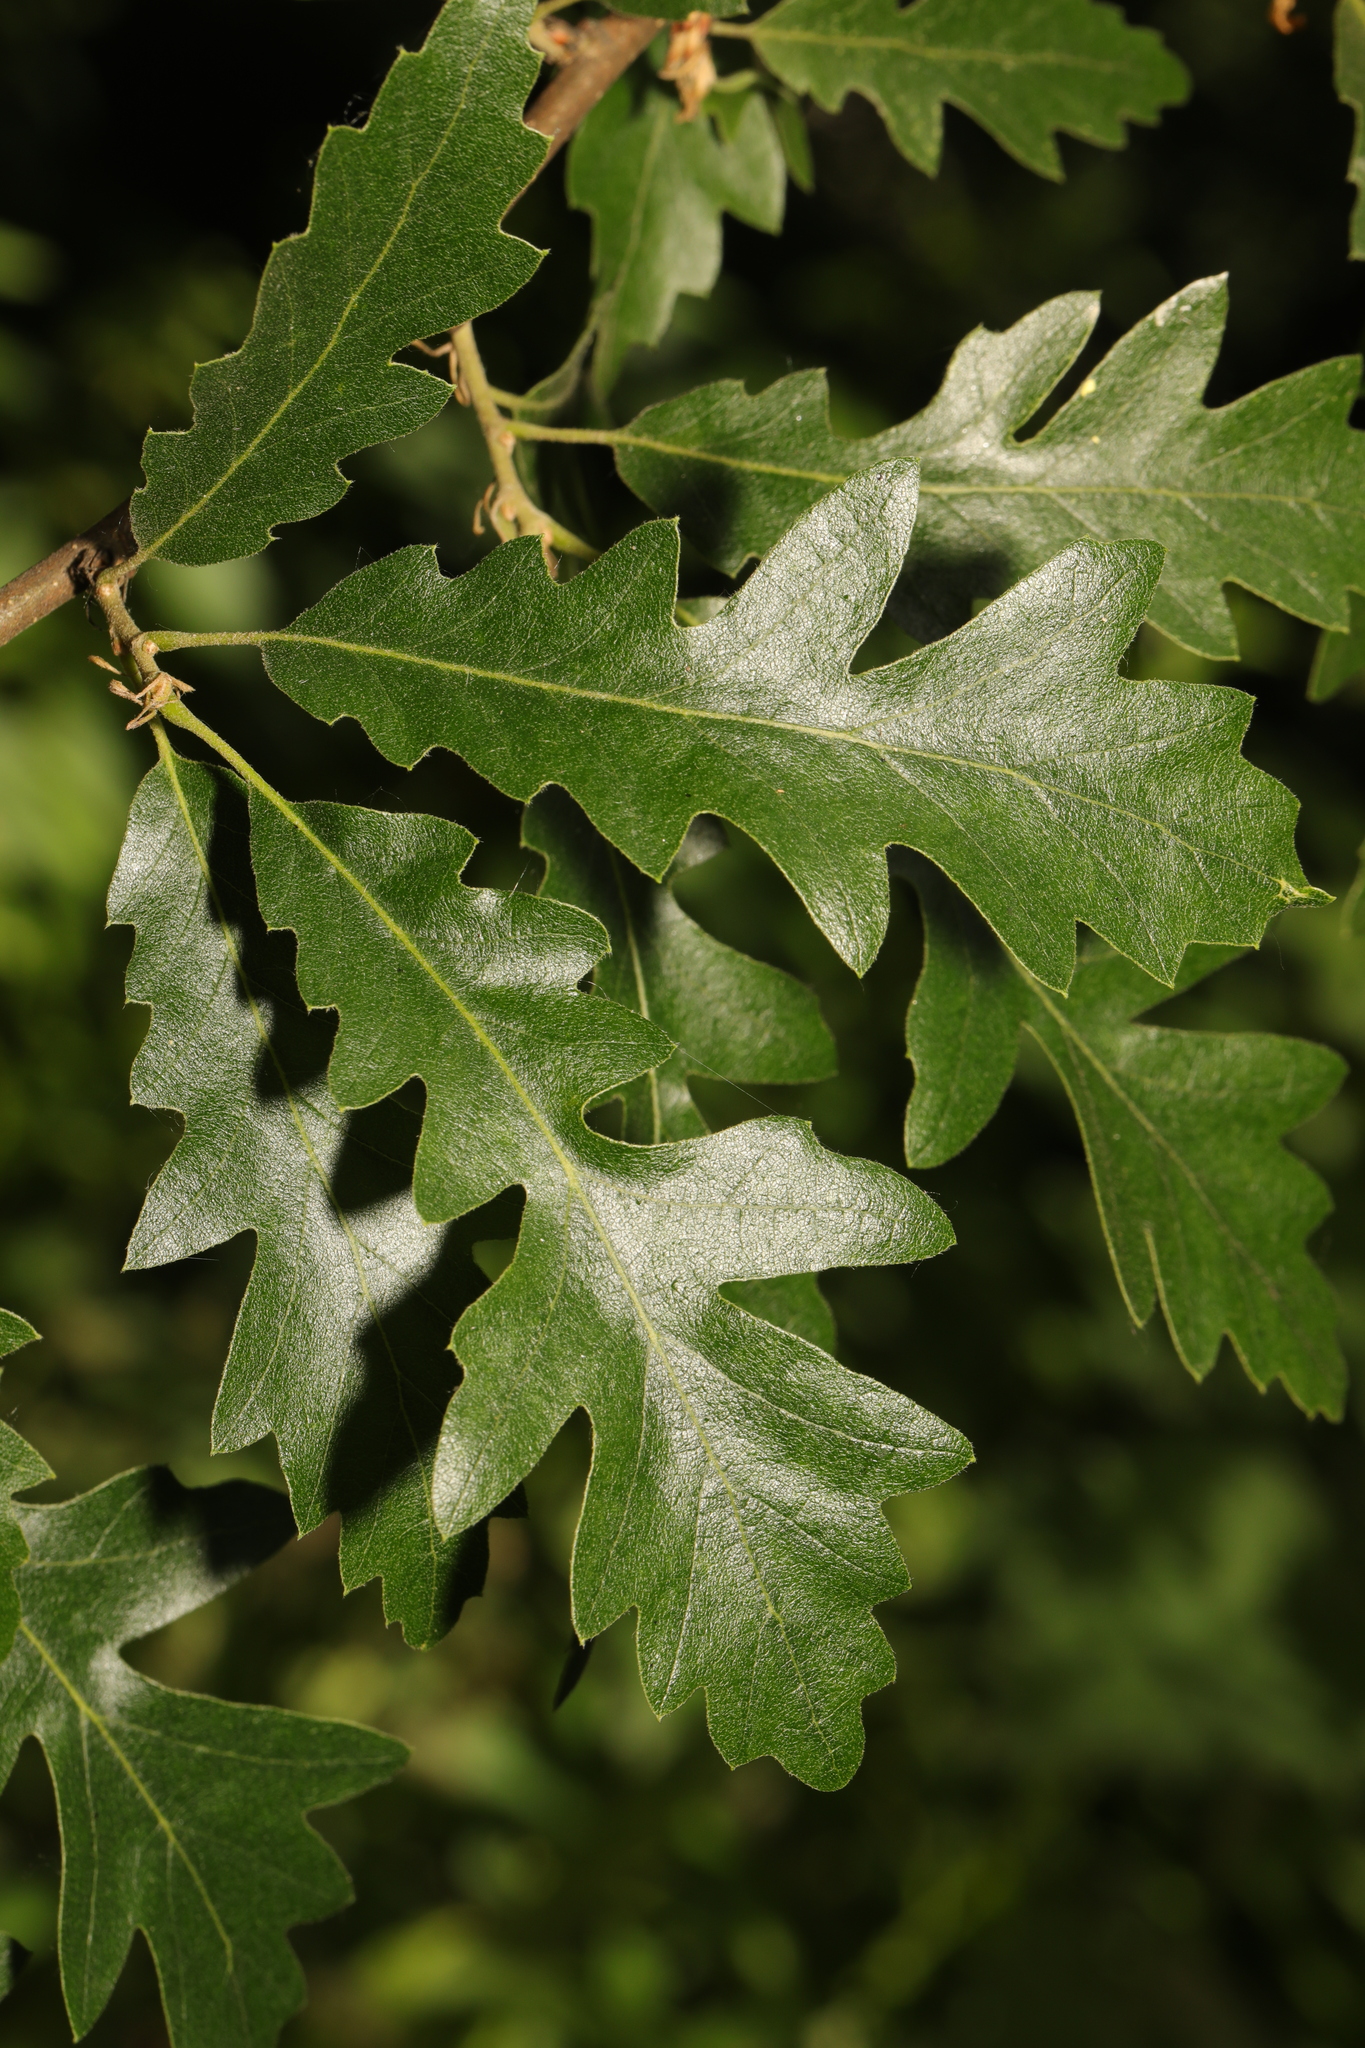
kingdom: Plantae
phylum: Tracheophyta
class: Magnoliopsida
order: Fagales
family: Fagaceae
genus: Quercus
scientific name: Quercus cerris
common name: Turkey oak
